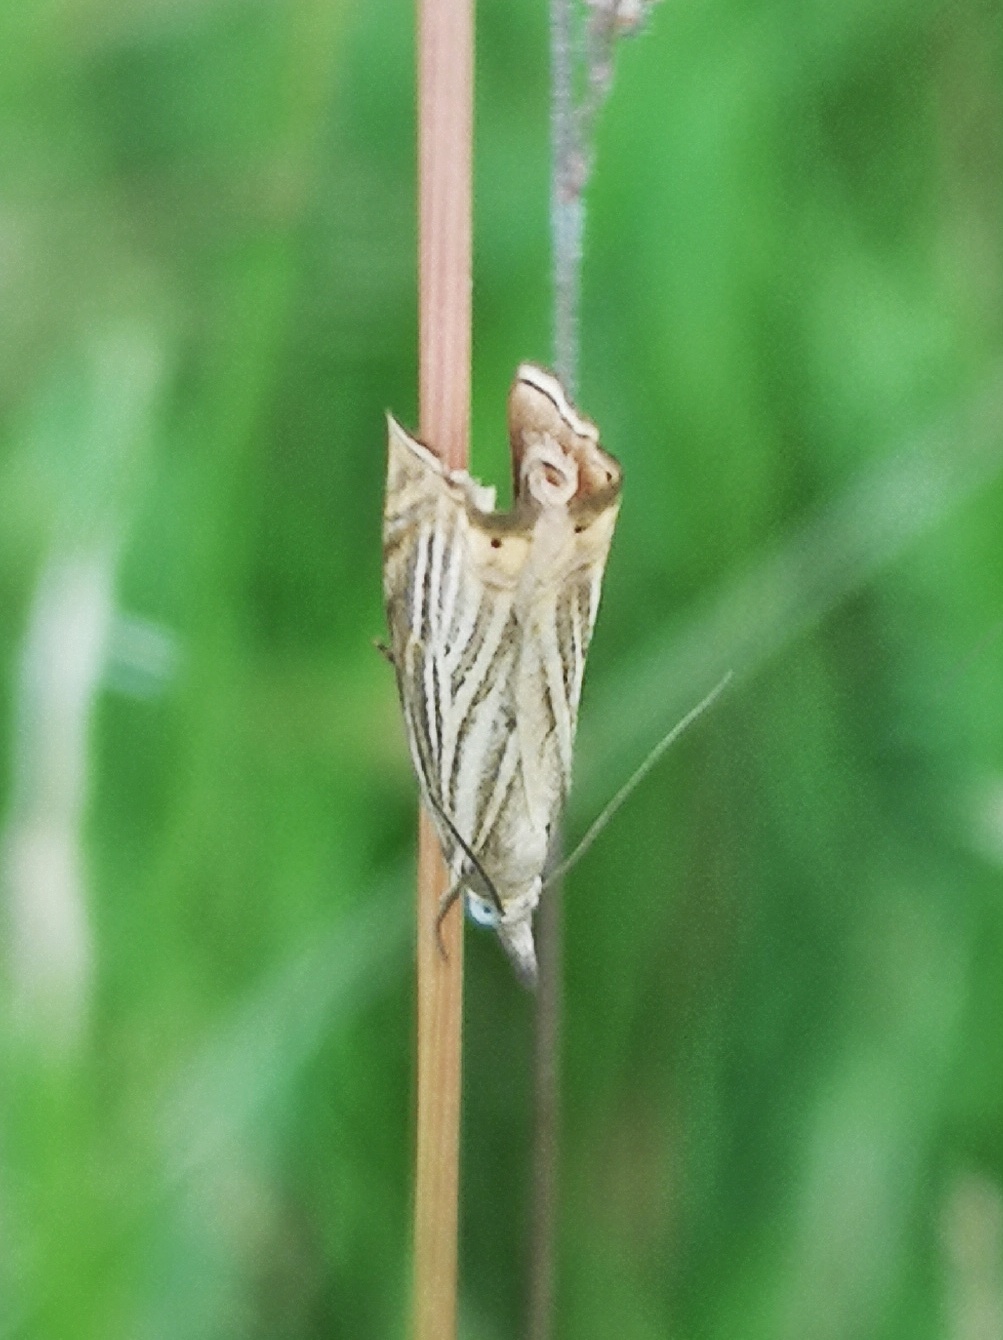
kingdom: Animalia
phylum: Arthropoda
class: Insecta
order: Lepidoptera
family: Crambidae
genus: Chrysoteuchia
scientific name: Chrysoteuchia culmella
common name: Garden grass-veneer
